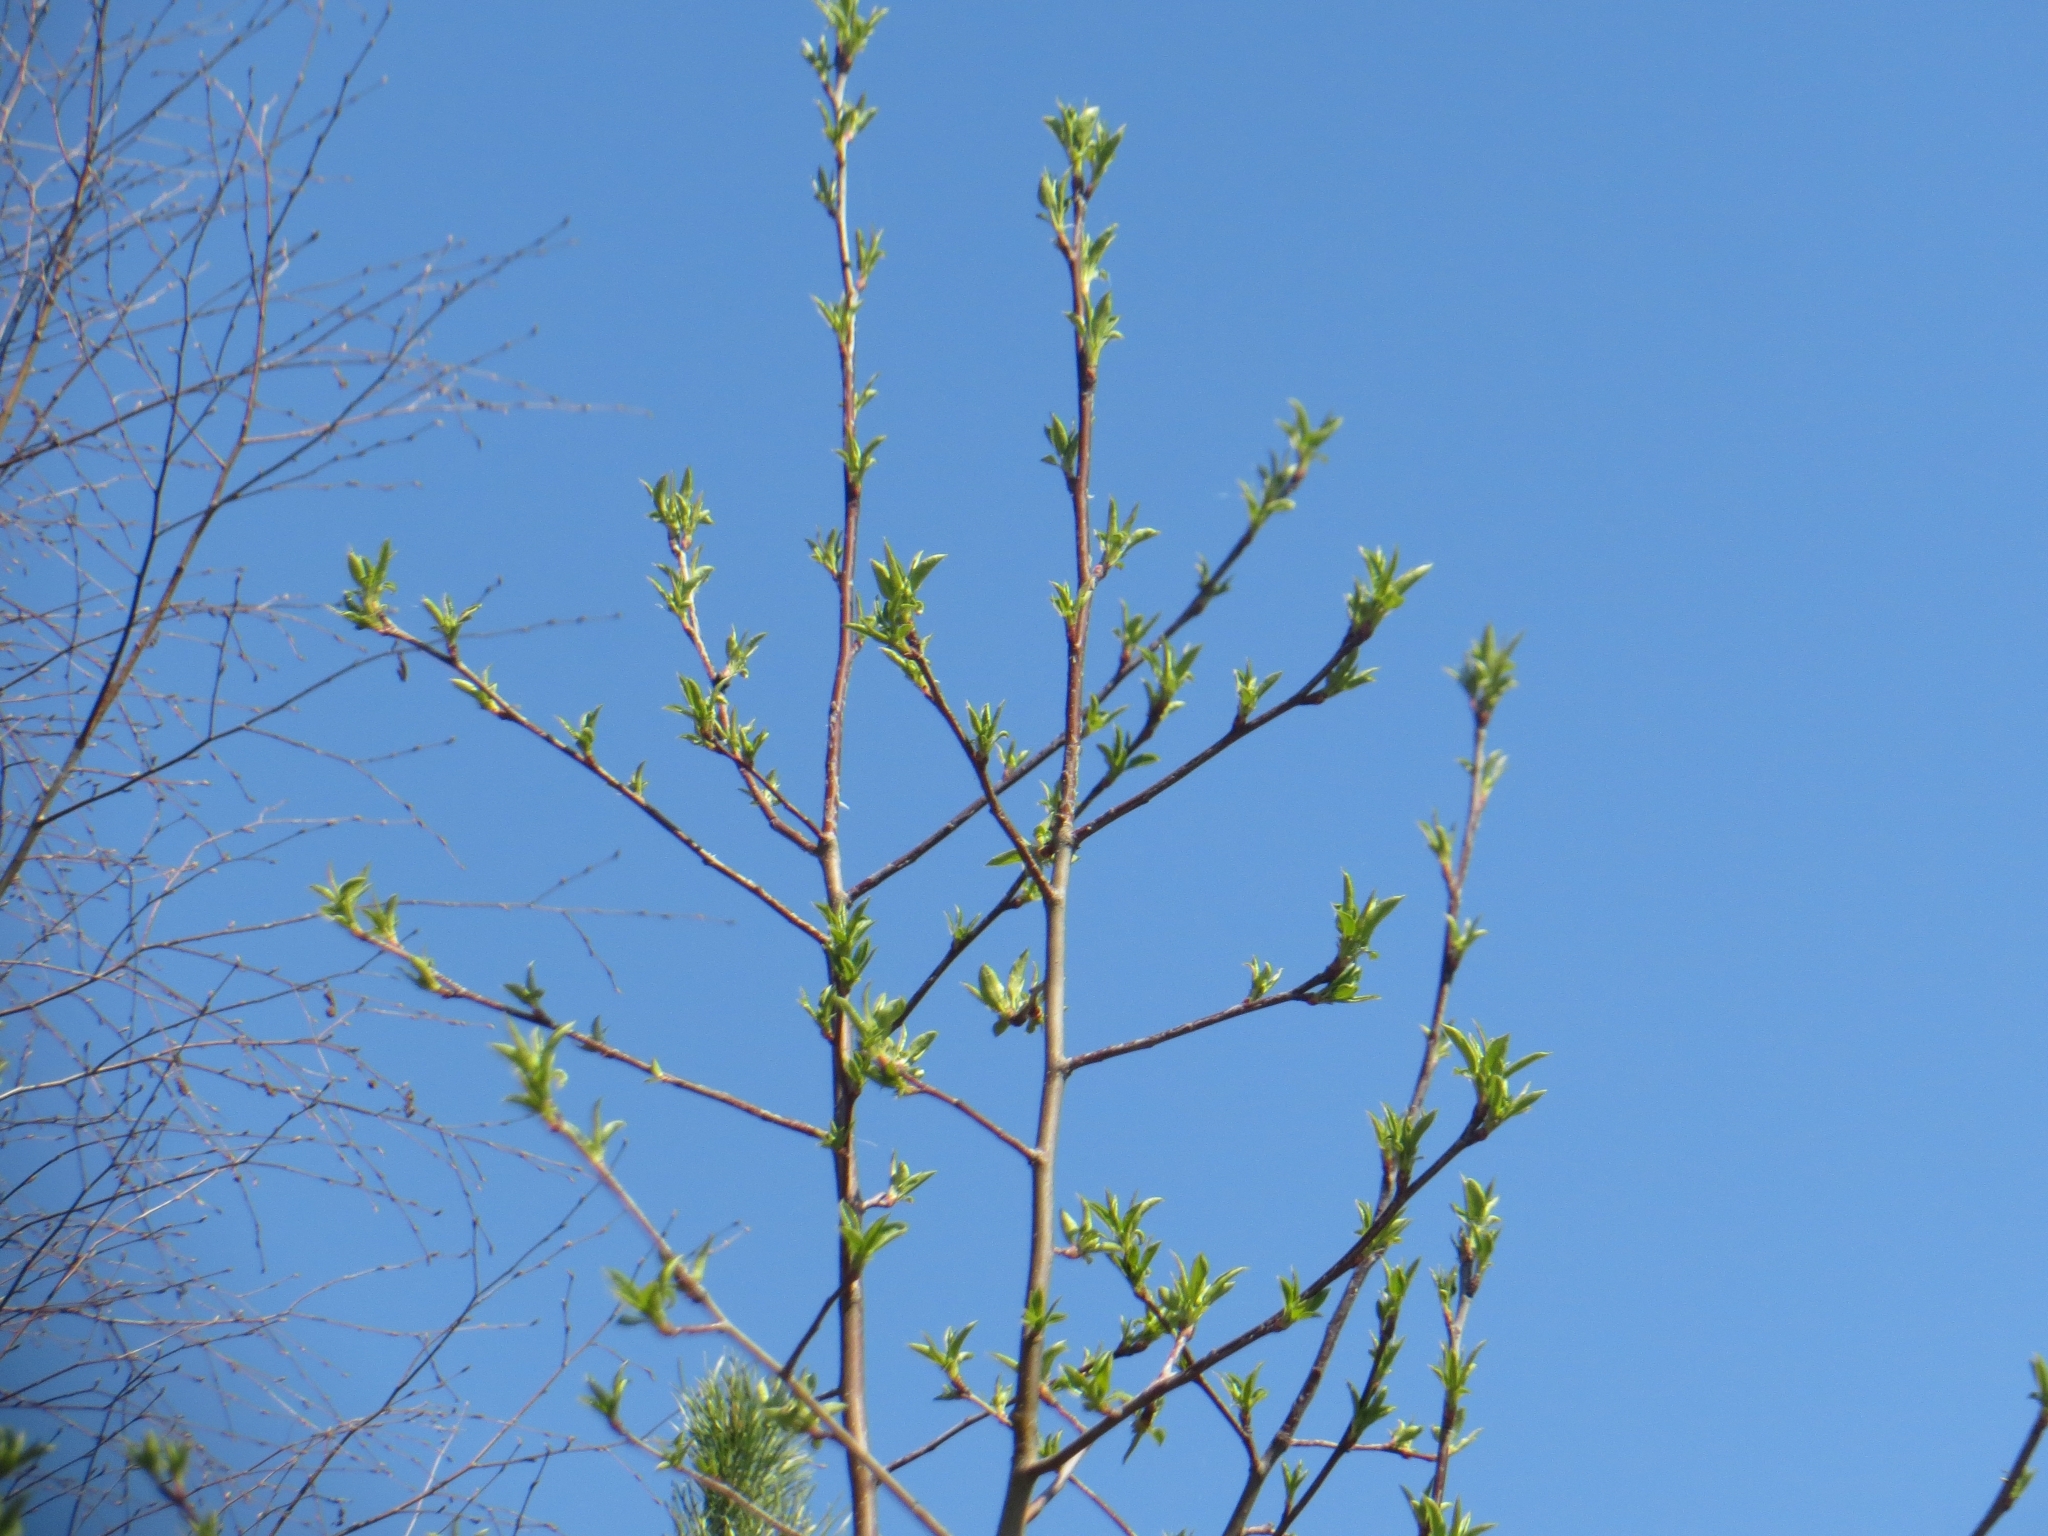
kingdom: Plantae
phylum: Tracheophyta
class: Magnoliopsida
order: Rosales
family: Rosaceae
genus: Prunus
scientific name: Prunus padus
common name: Bird cherry
